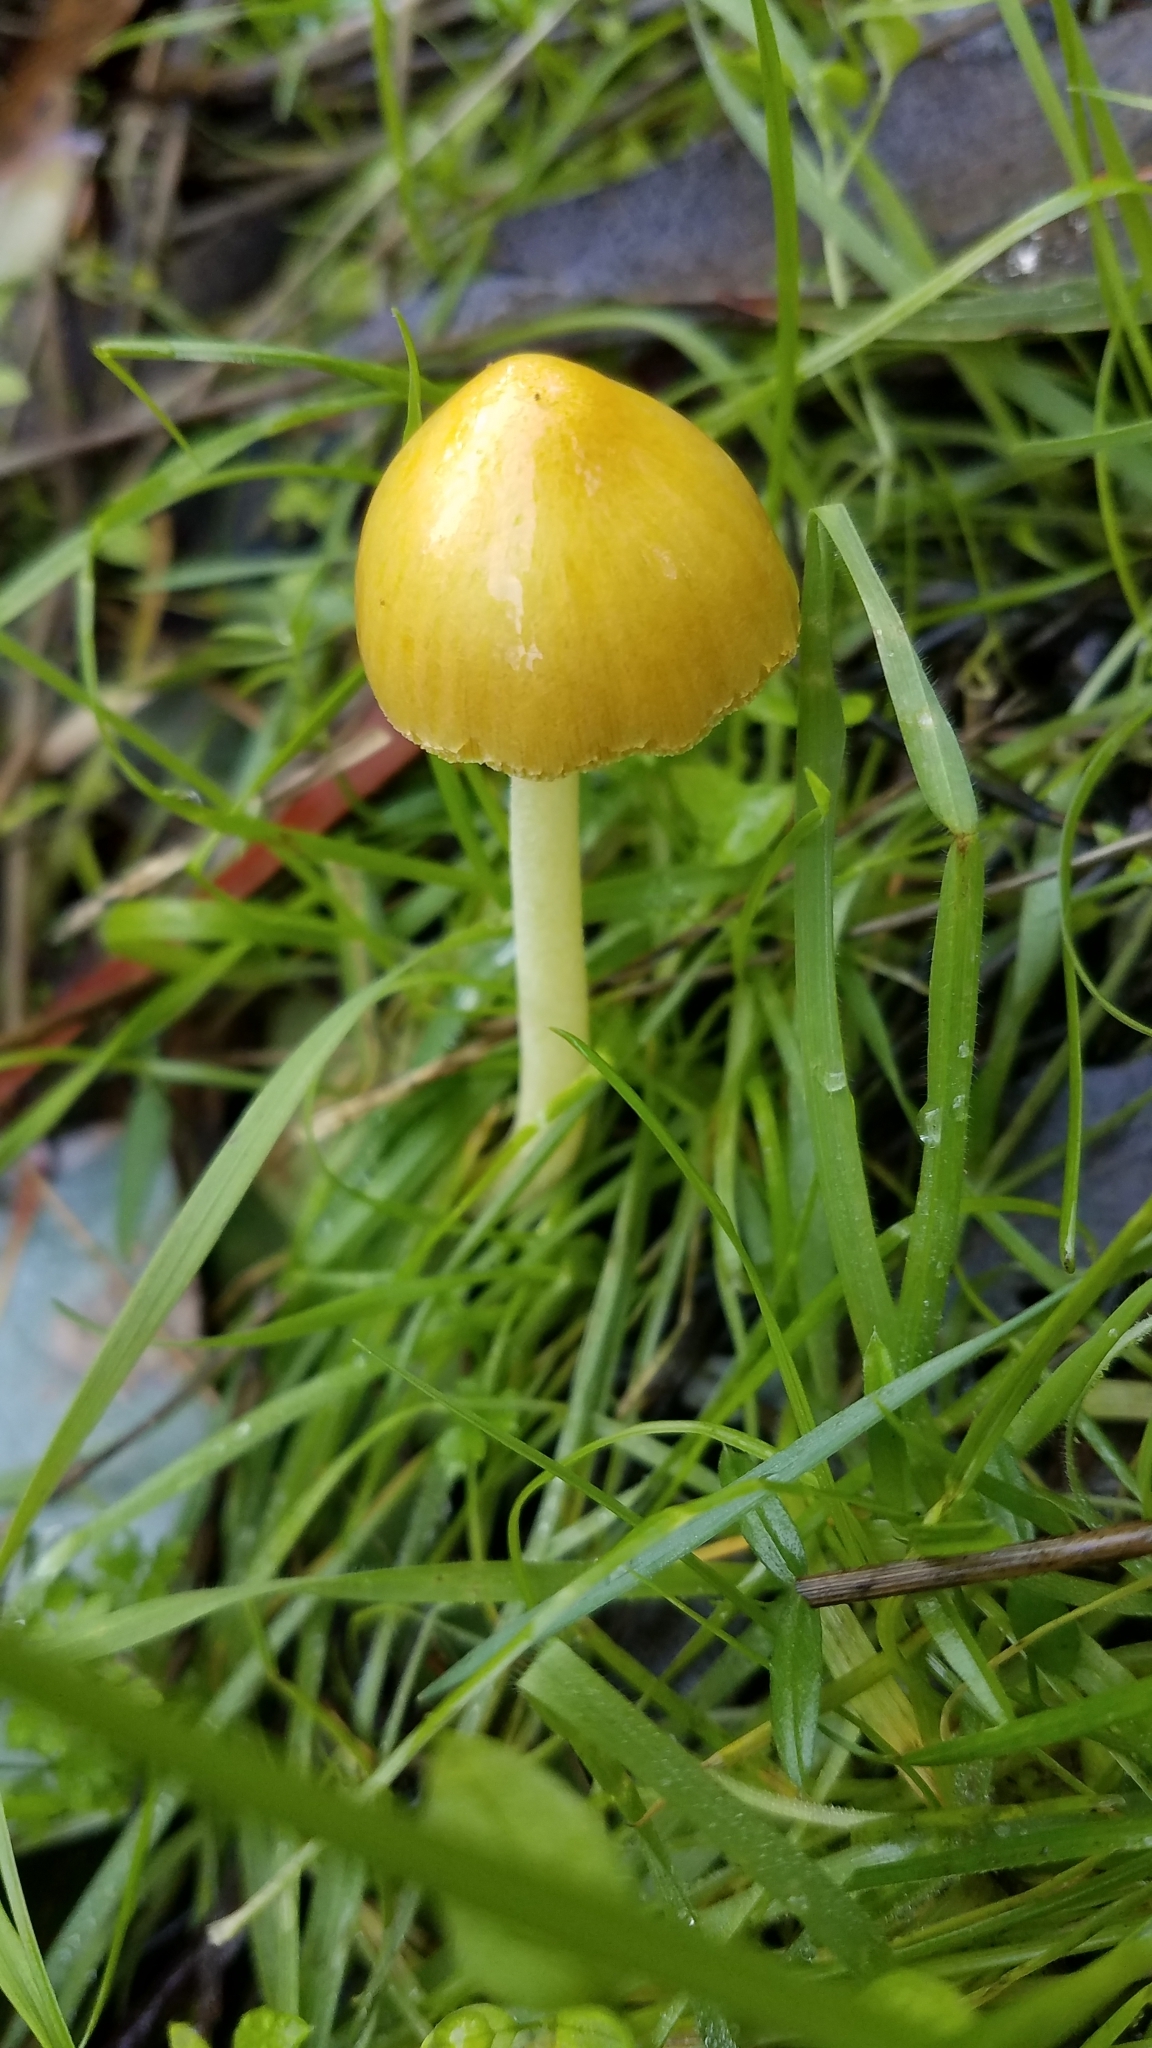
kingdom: Fungi
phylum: Basidiomycota
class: Agaricomycetes
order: Agaricales
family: Bolbitiaceae
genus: Bolbitius
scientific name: Bolbitius titubans
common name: Yellow fieldcap
